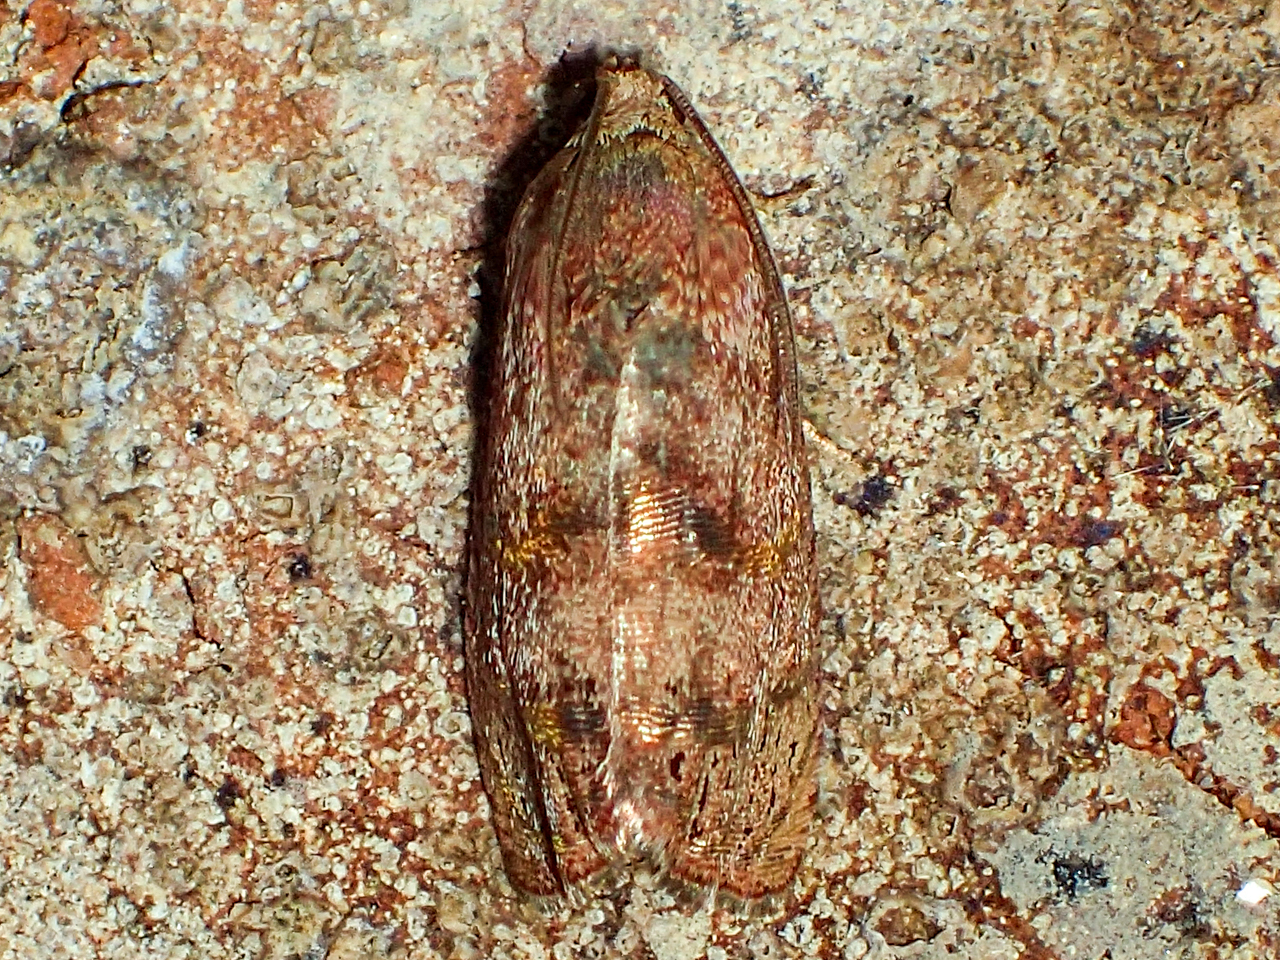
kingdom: Animalia
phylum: Arthropoda
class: Insecta
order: Lepidoptera
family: Tortricidae
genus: Cydia
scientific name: Cydia latiferreana
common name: Filbertworm moth
